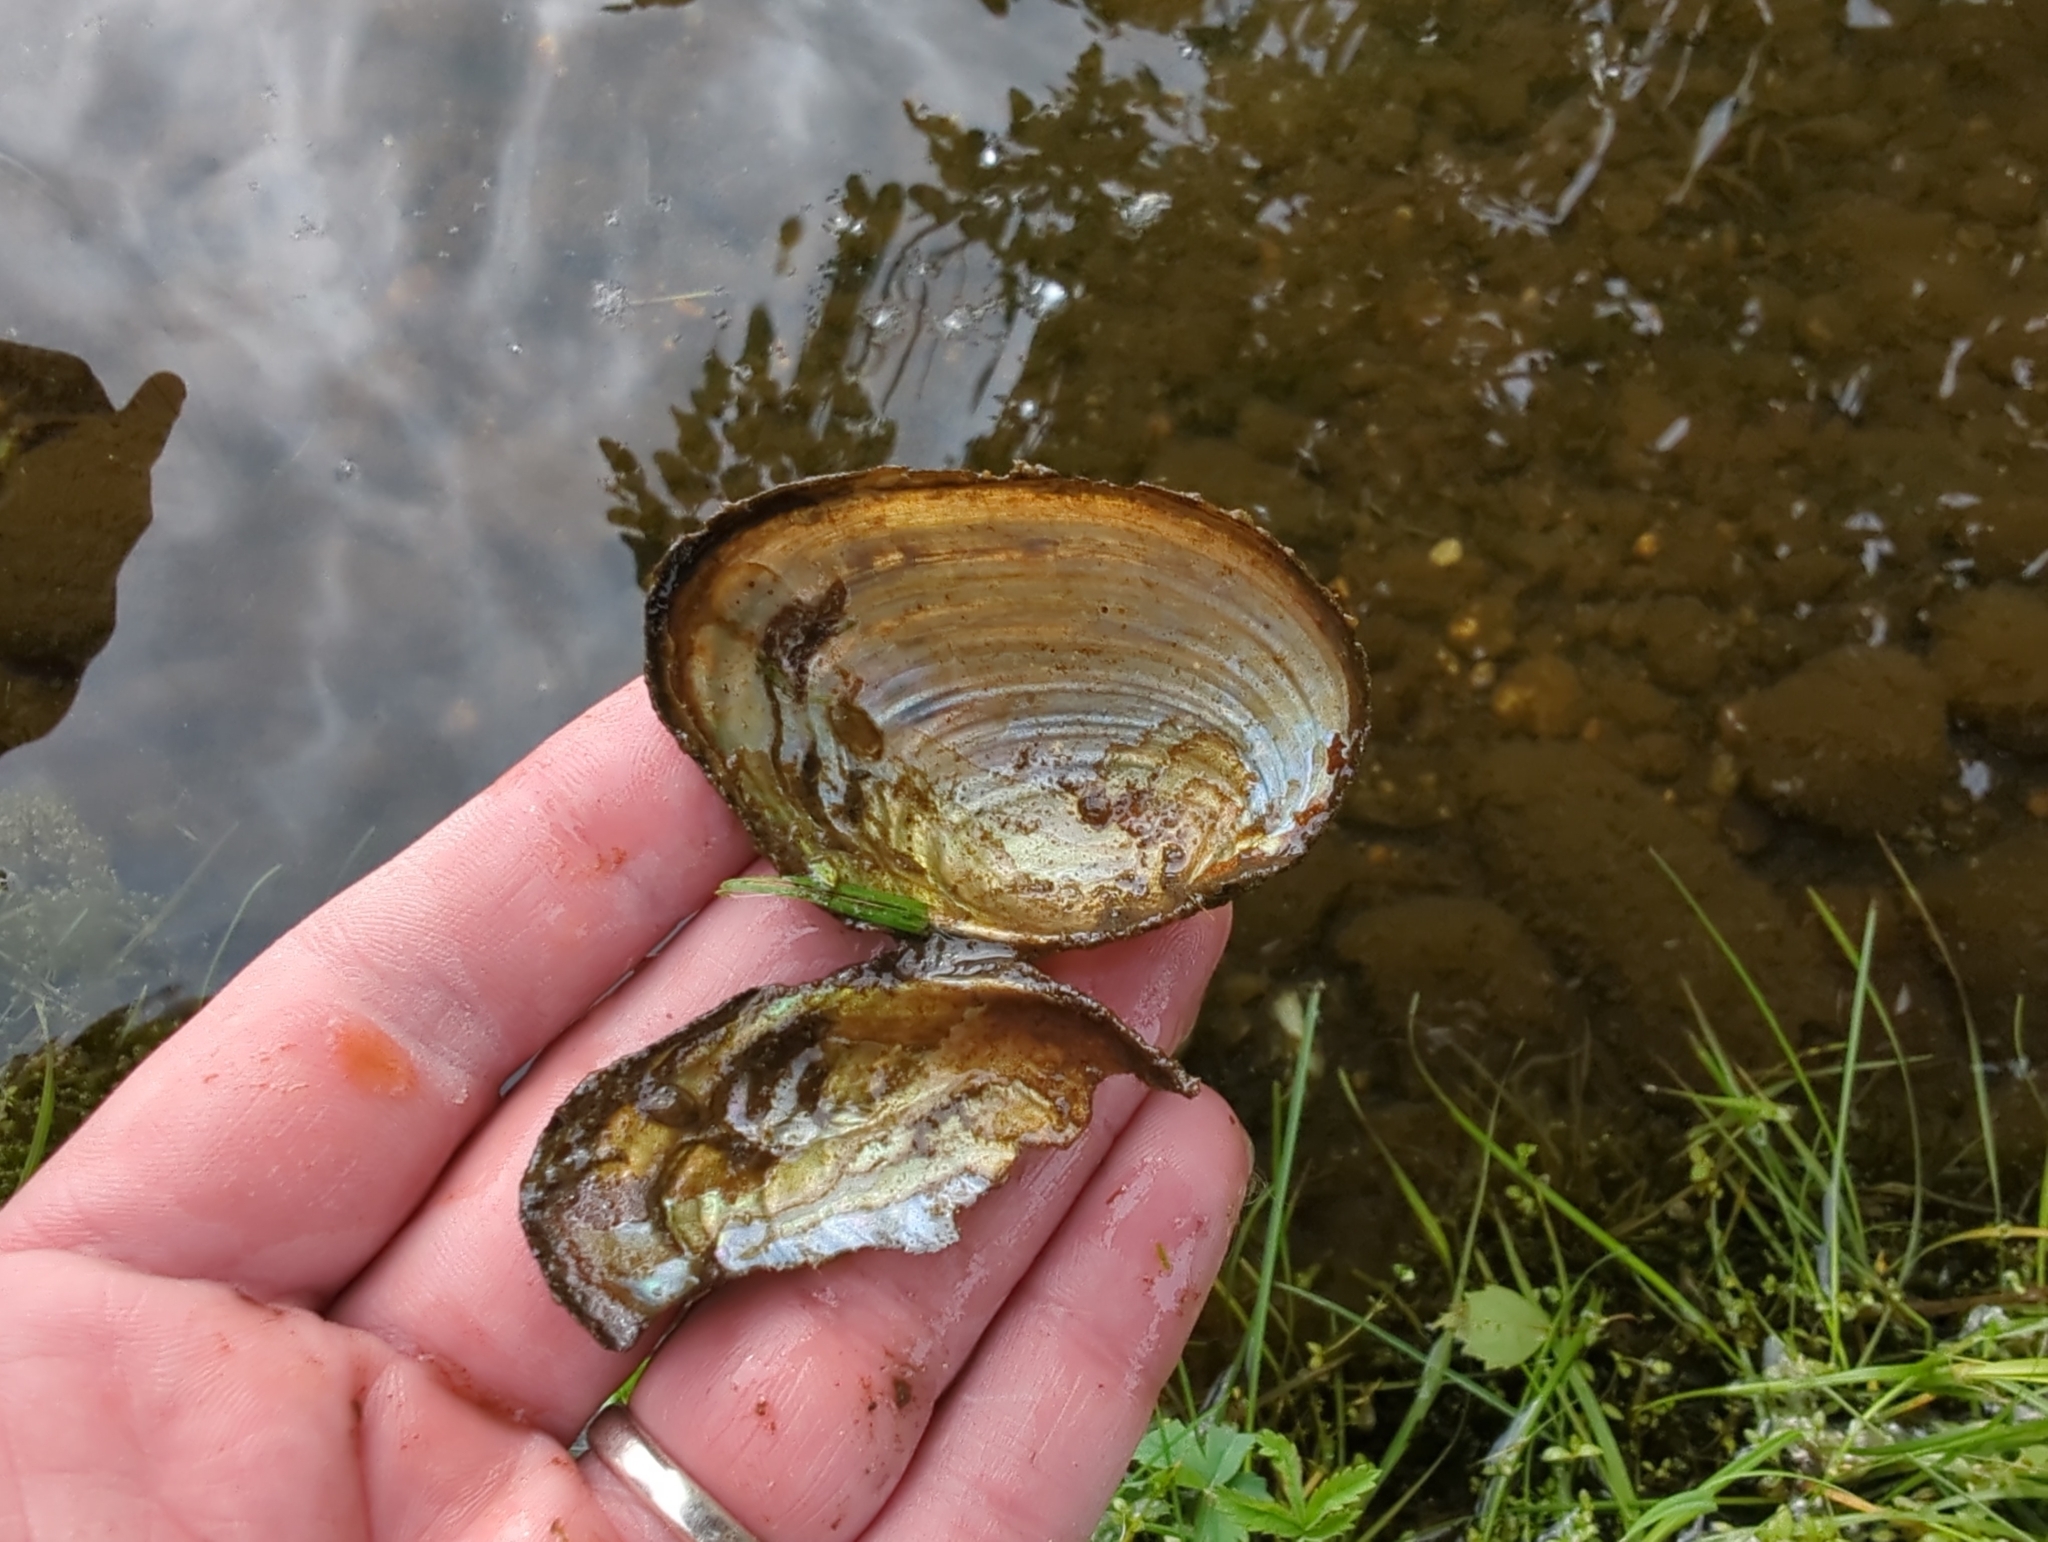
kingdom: Animalia
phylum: Mollusca
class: Bivalvia
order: Unionida
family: Unionidae
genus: Beringiana
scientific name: Beringiana beringiana
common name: Yukon floater
